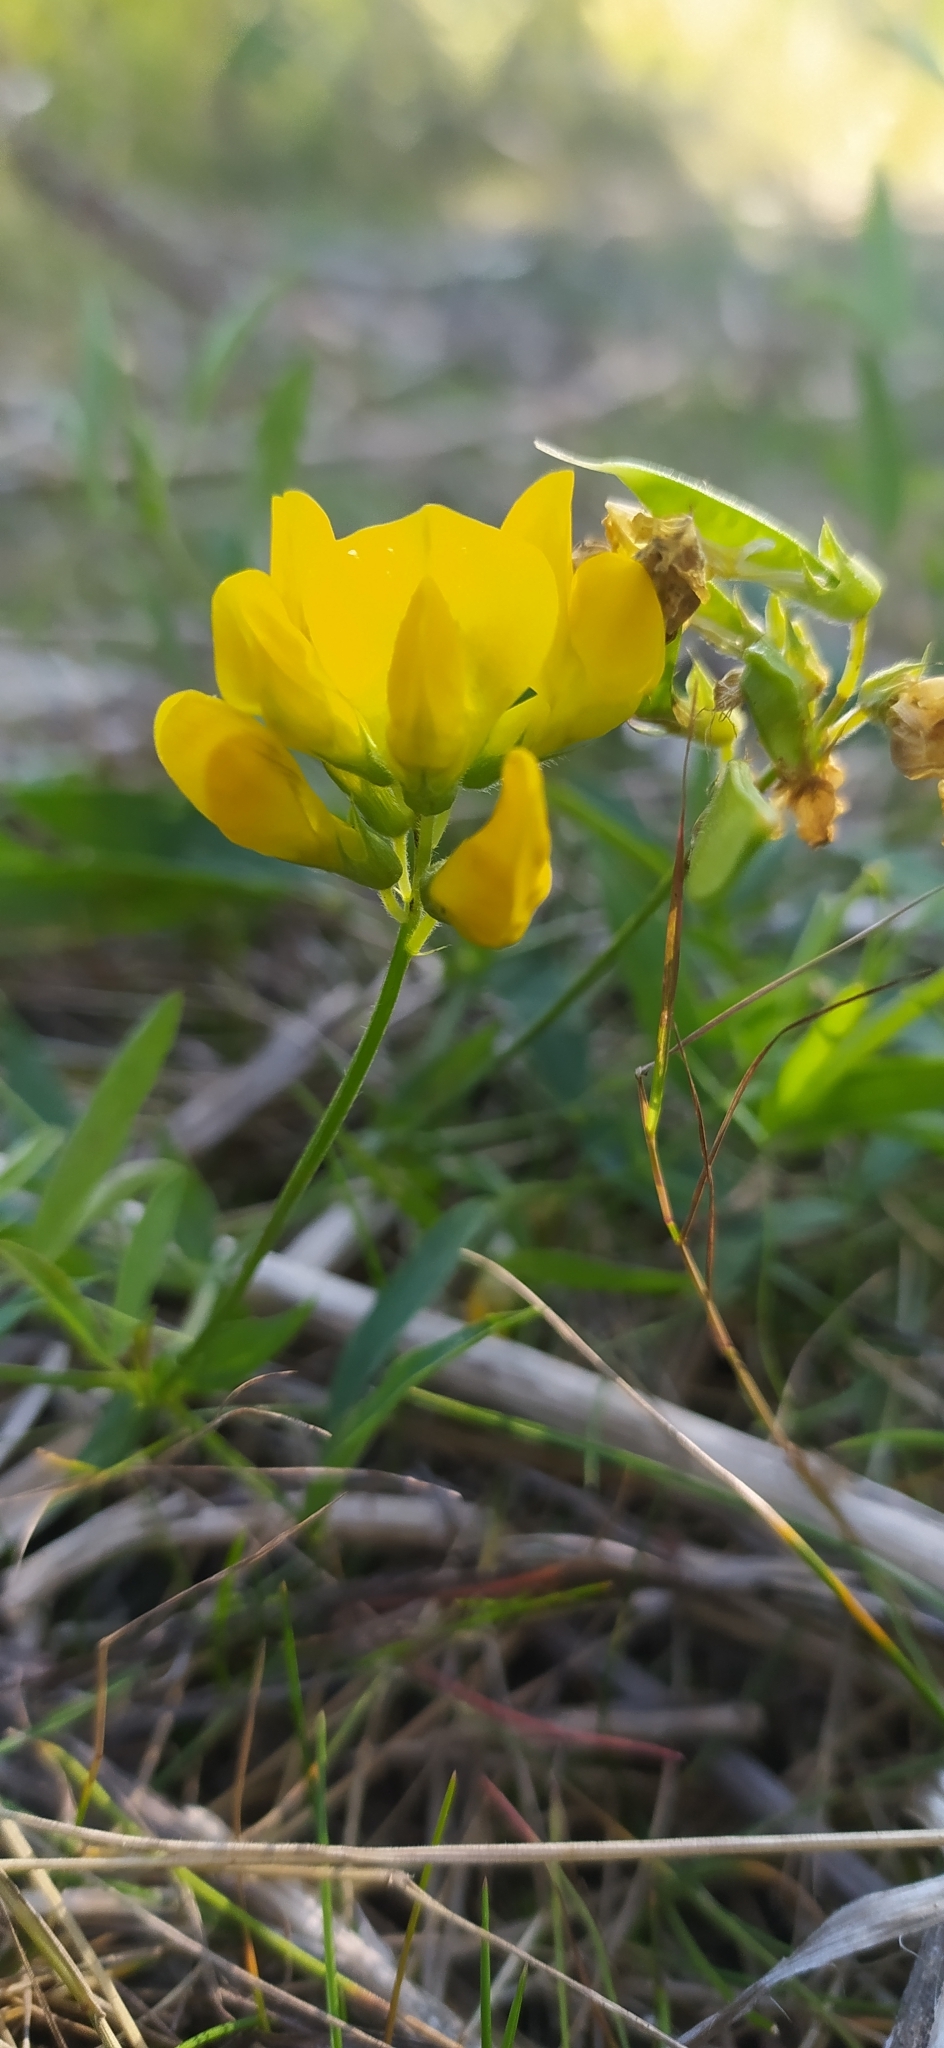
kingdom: Plantae
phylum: Tracheophyta
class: Magnoliopsida
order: Fabales
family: Fabaceae
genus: Lathyrus
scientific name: Lathyrus pratensis
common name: Meadow vetchling
